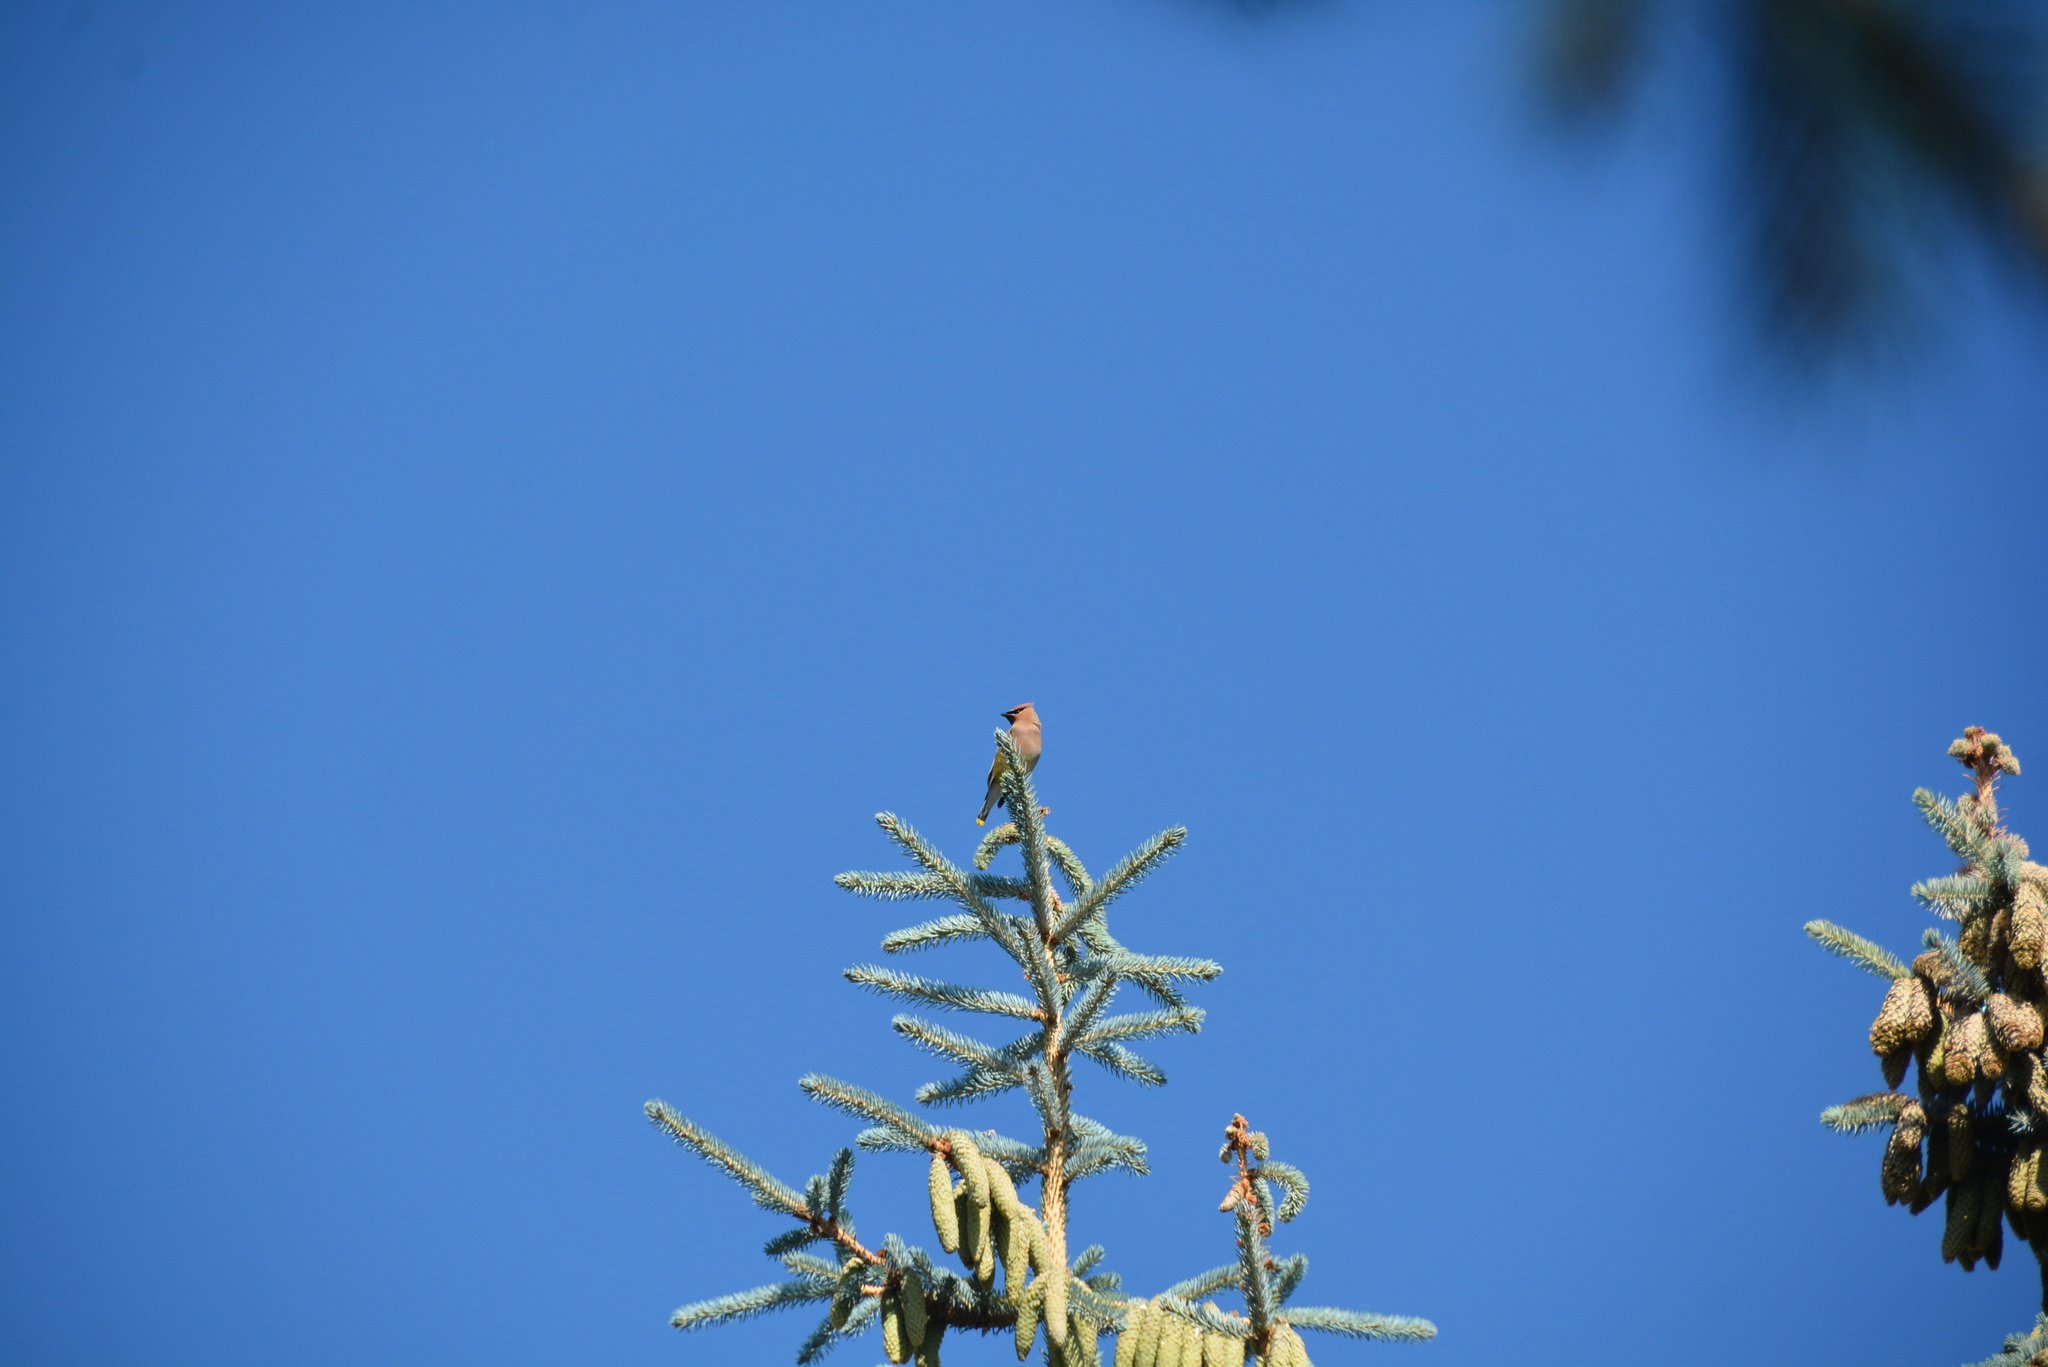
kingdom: Animalia
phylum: Chordata
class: Aves
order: Passeriformes
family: Bombycillidae
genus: Bombycilla
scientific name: Bombycilla cedrorum
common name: Cedar waxwing
